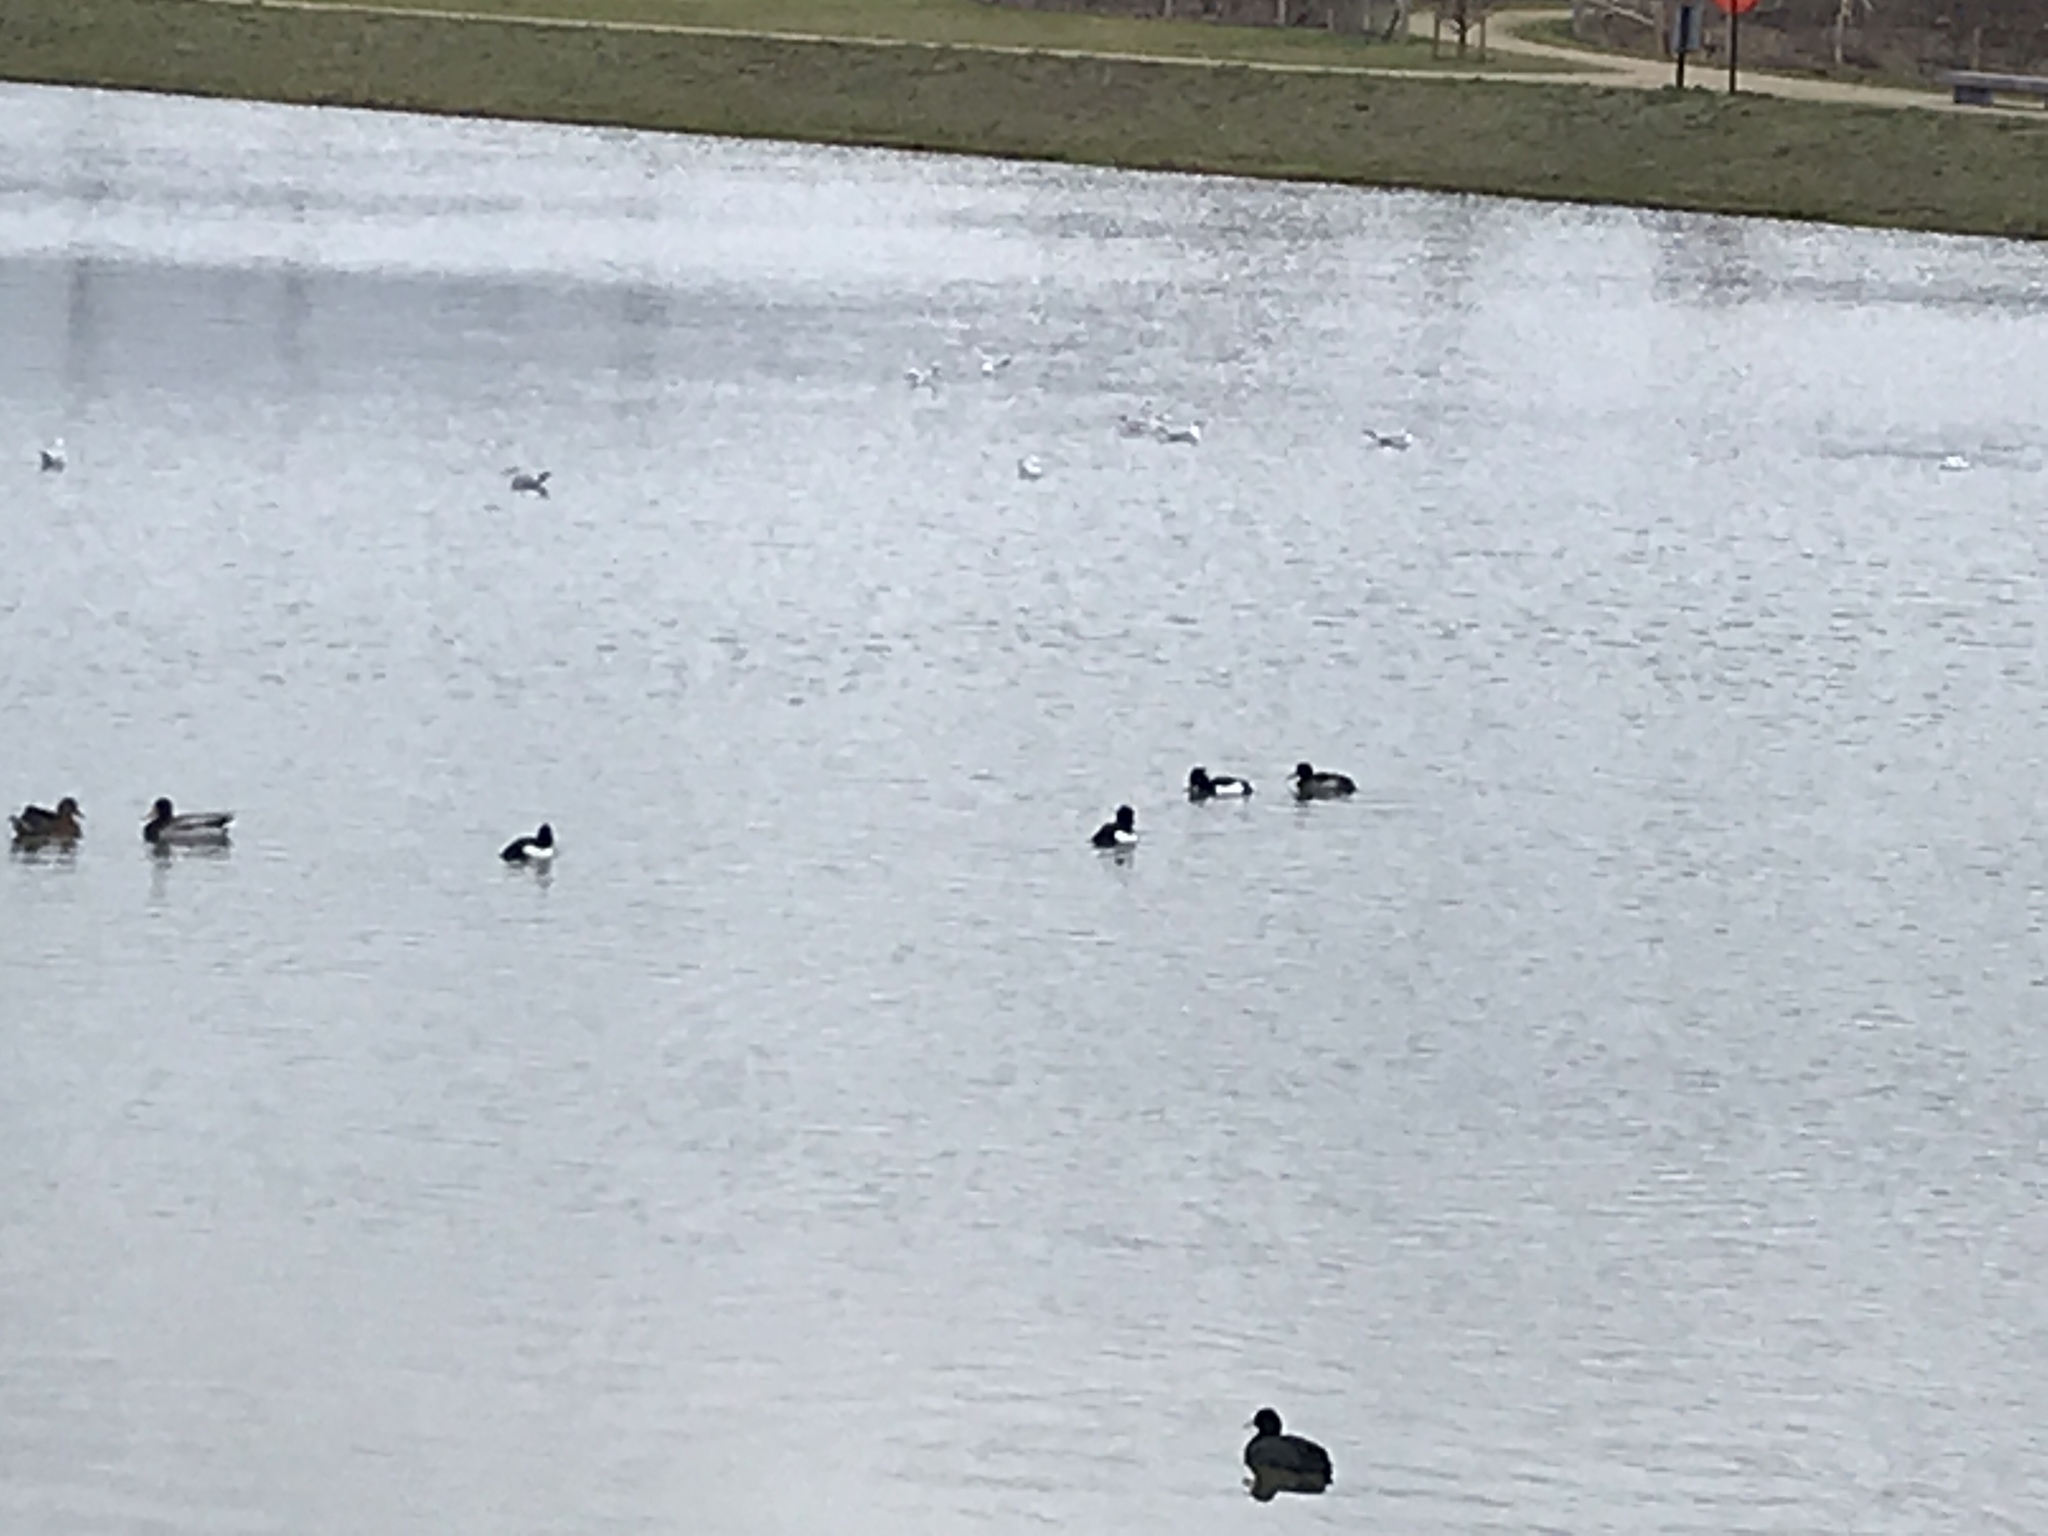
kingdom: Animalia
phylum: Chordata
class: Aves
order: Anseriformes
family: Anatidae
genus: Aythya
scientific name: Aythya fuligula
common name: Tufted duck
